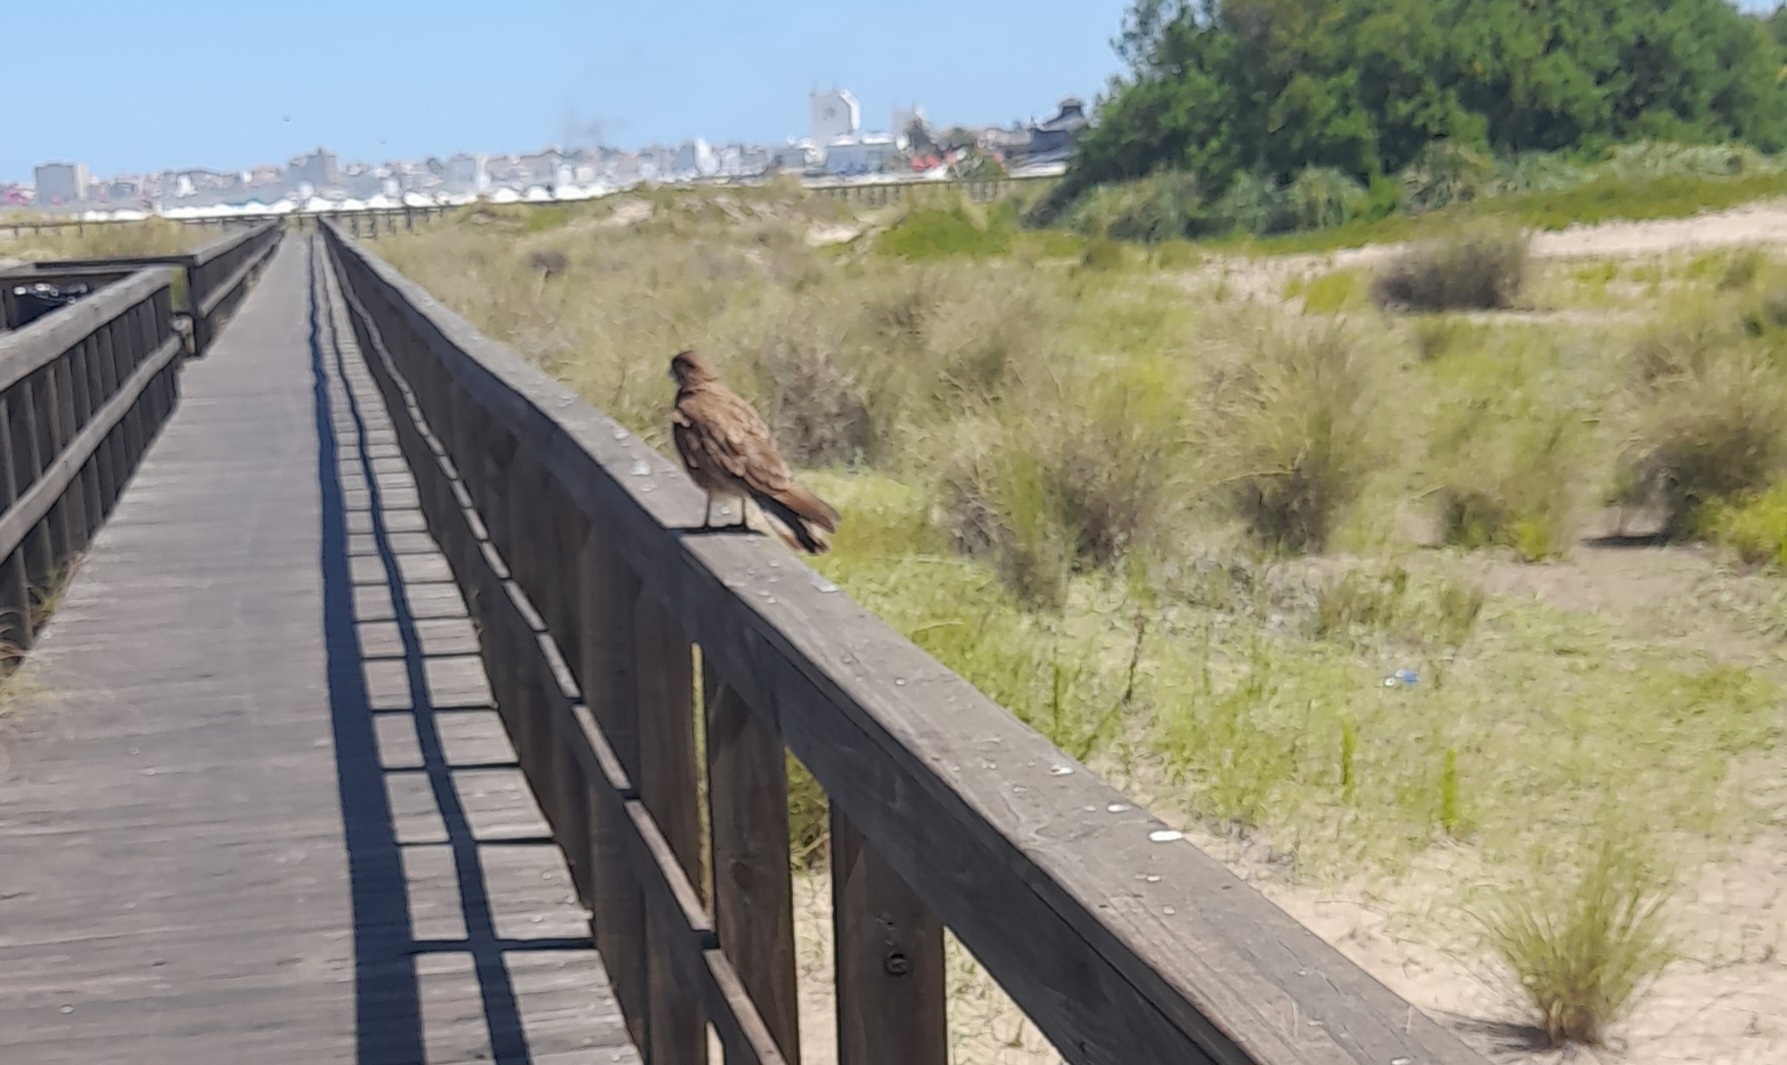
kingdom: Animalia
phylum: Chordata
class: Aves
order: Falconiformes
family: Falconidae
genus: Daptrius
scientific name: Daptrius
